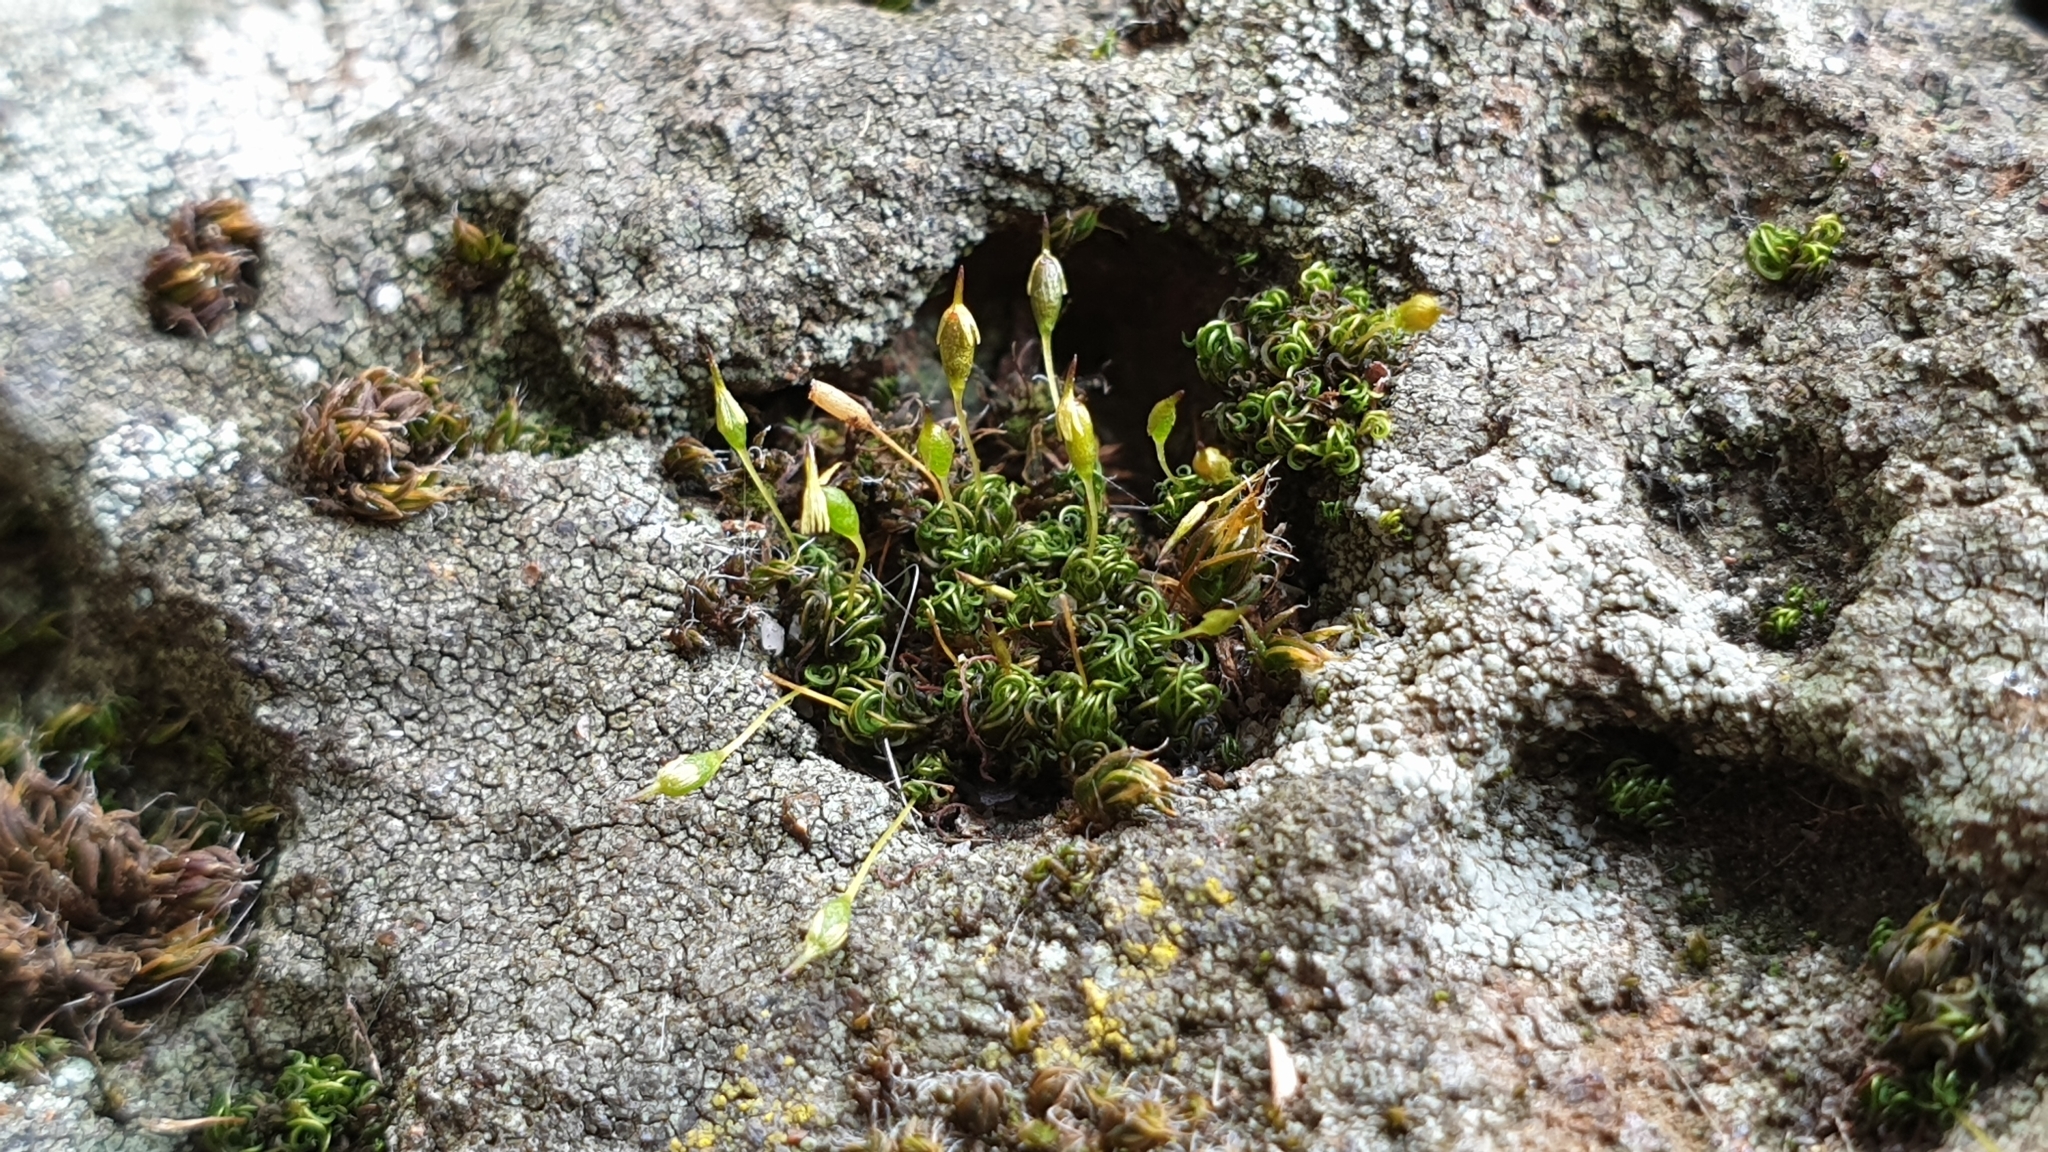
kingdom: Plantae
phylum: Bryophyta
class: Bryopsida
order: Grimmiales
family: Ptychomitriaceae
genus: Ptychomitrium
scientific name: Ptychomitrium australe
